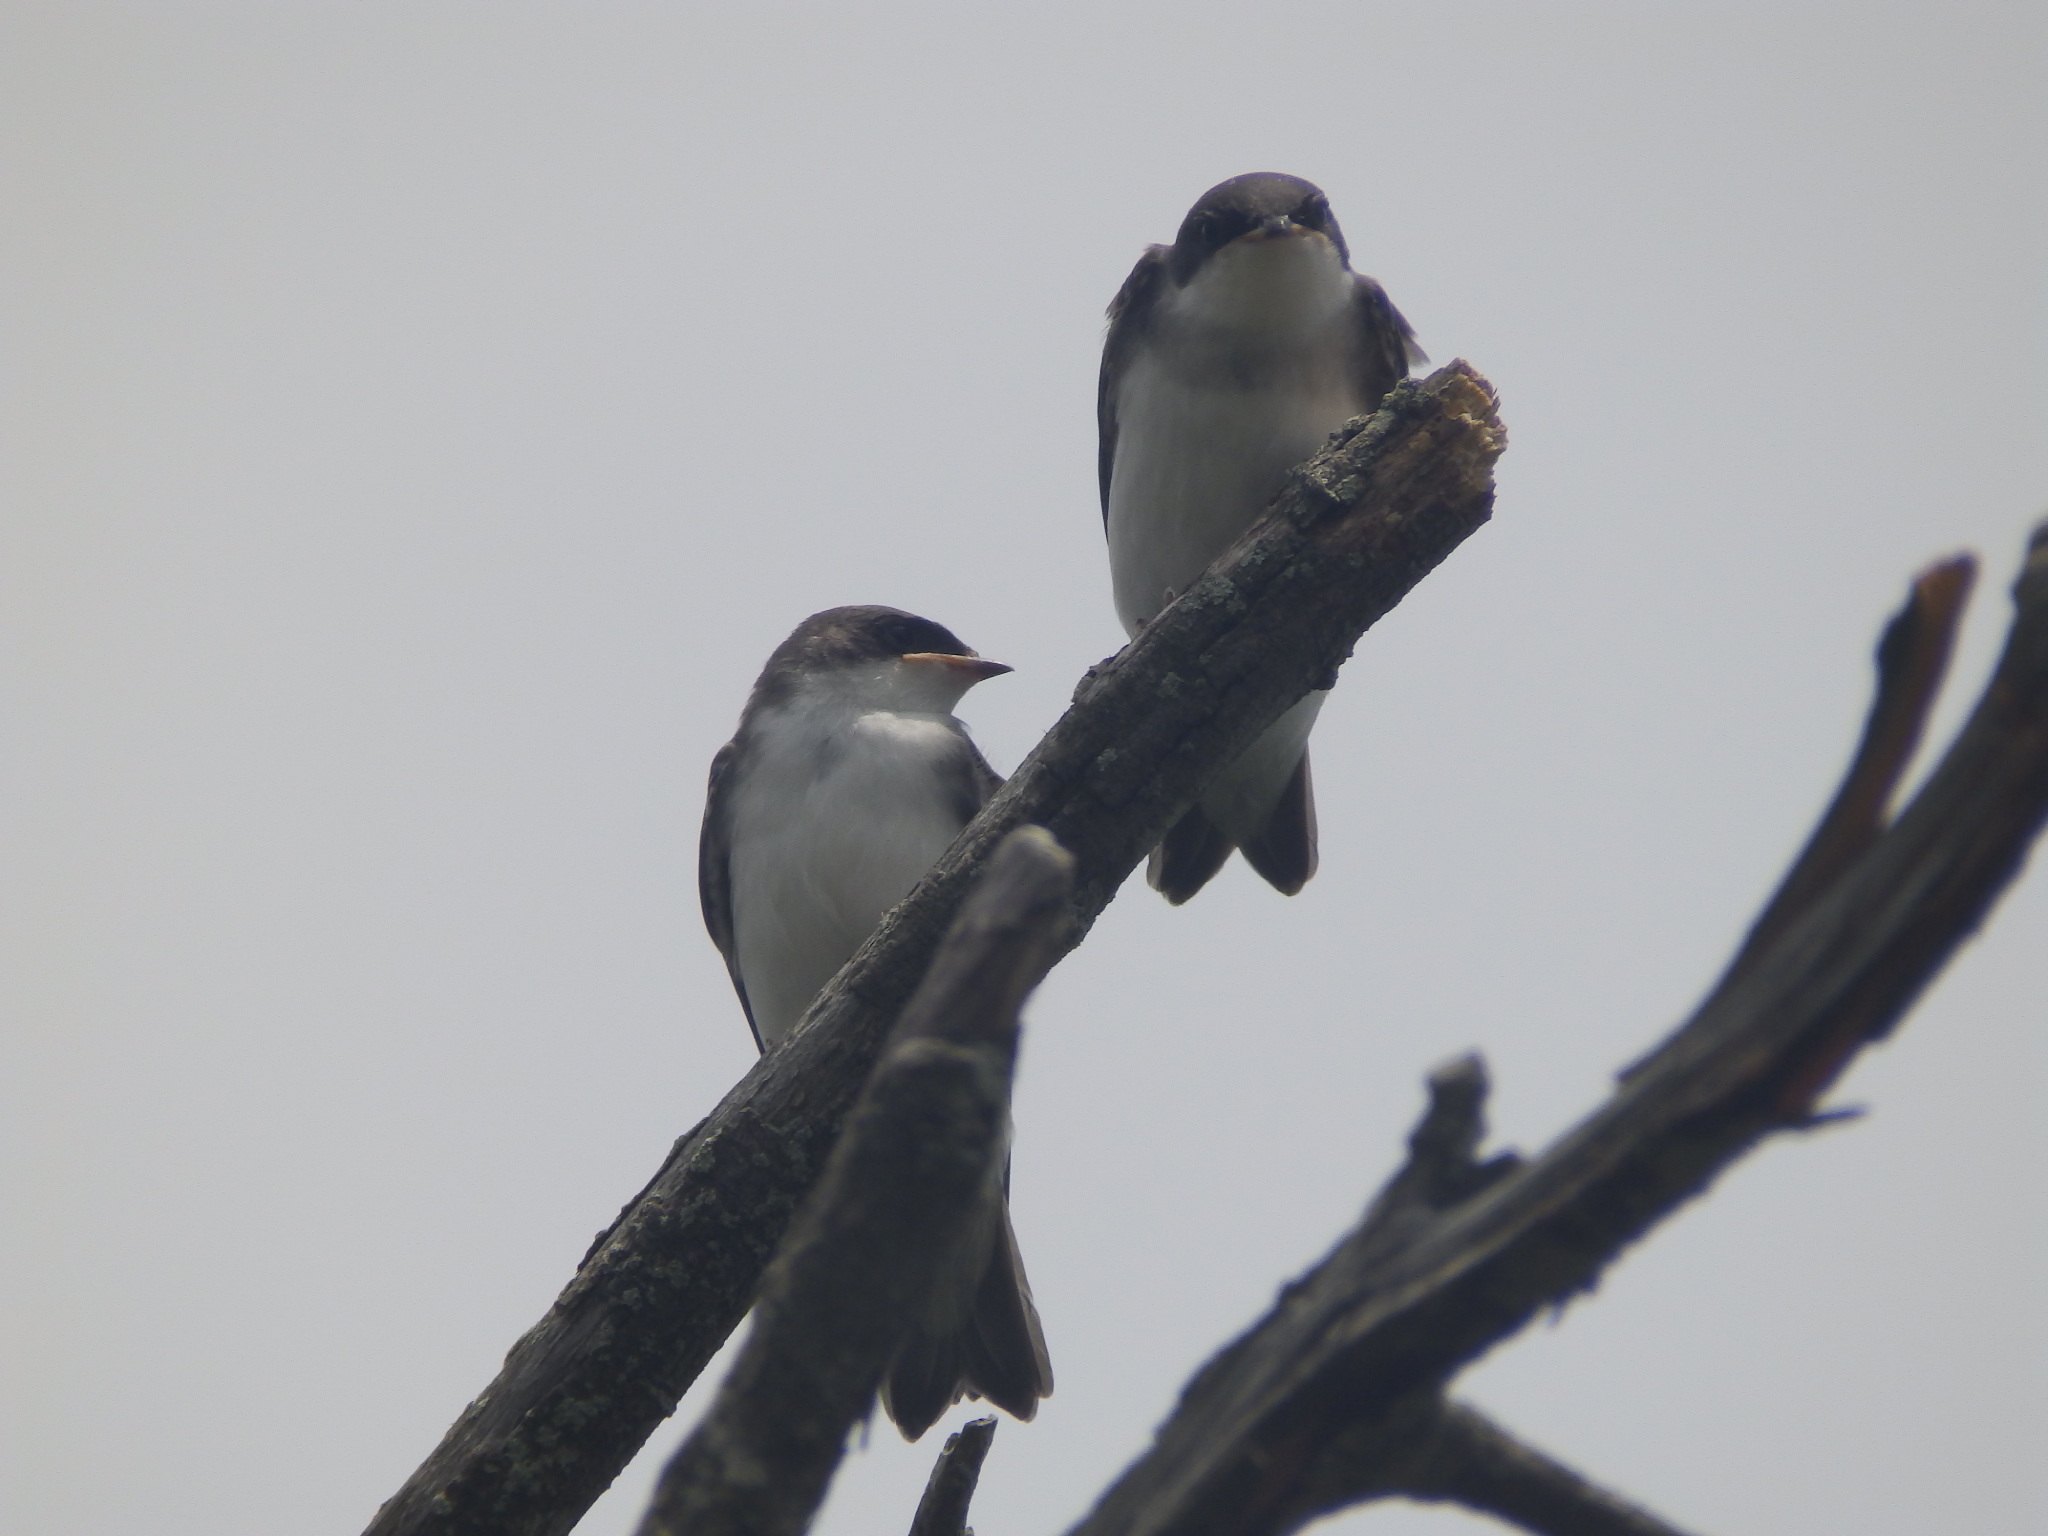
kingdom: Animalia
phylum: Chordata
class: Aves
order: Passeriformes
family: Hirundinidae
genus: Tachycineta
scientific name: Tachycineta bicolor
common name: Tree swallow
